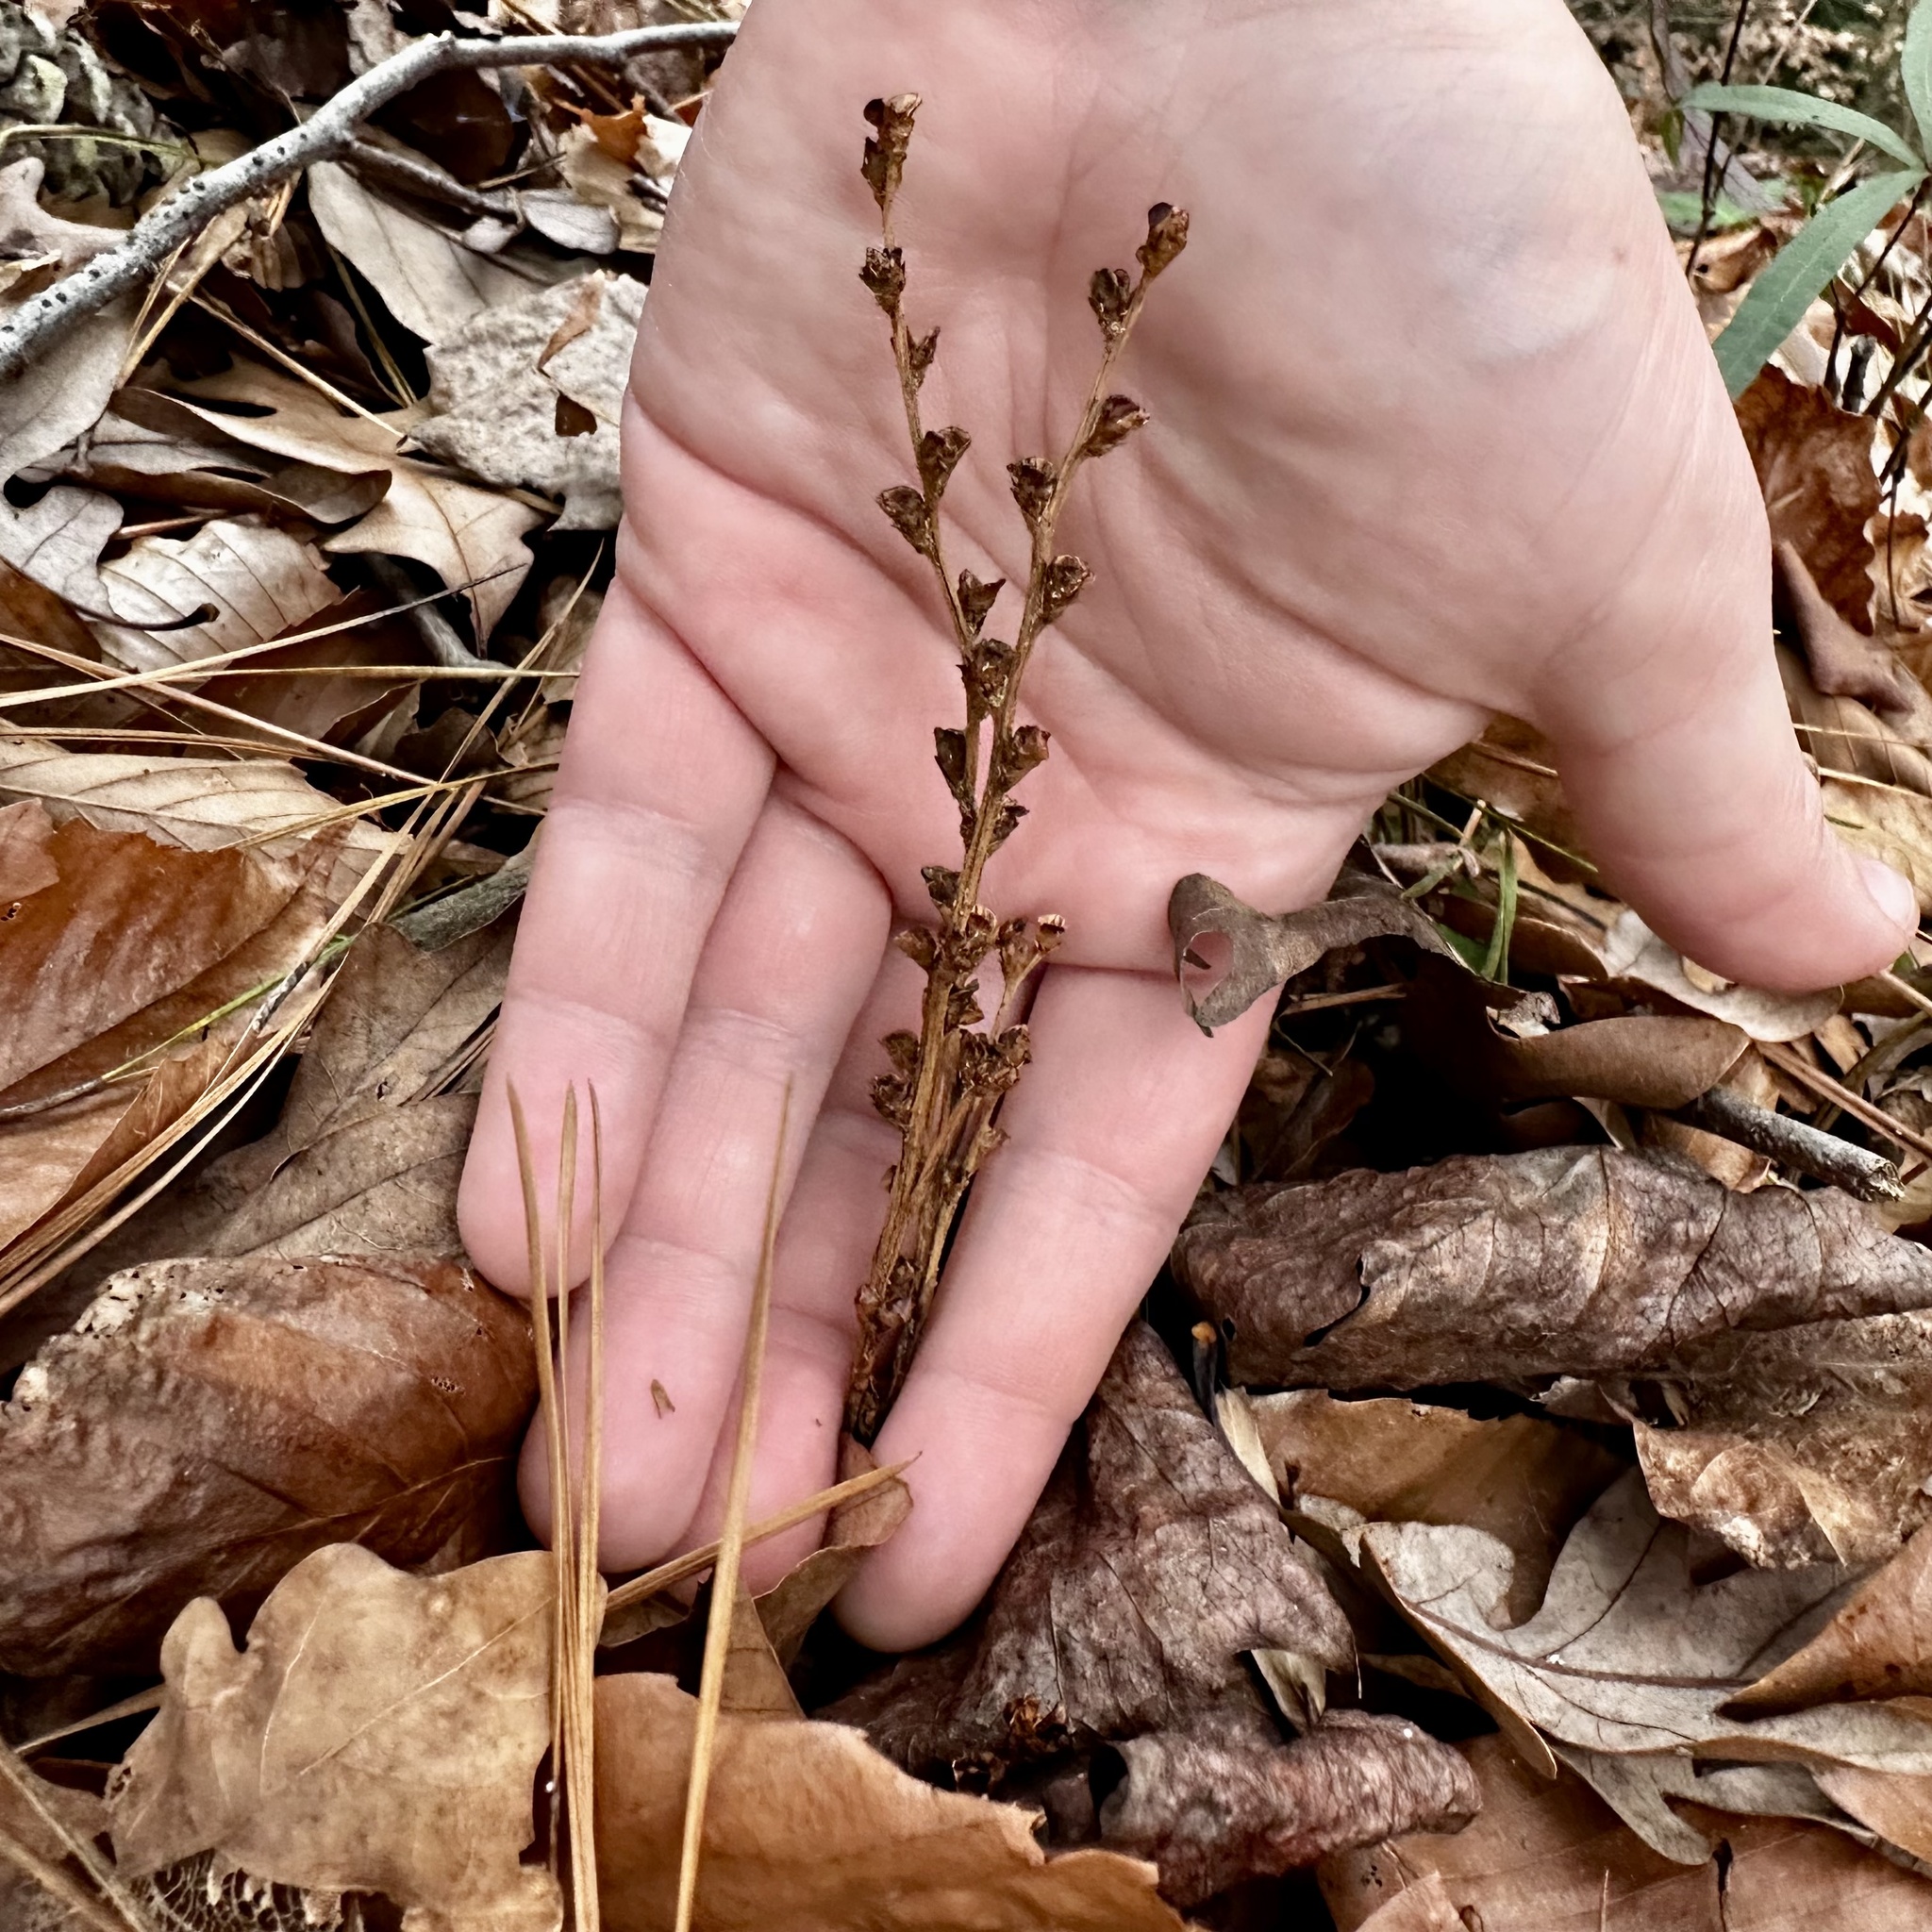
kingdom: Plantae
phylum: Tracheophyta
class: Magnoliopsida
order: Lamiales
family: Orobanchaceae
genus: Epifagus
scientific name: Epifagus virginiana
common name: Beechdrops
